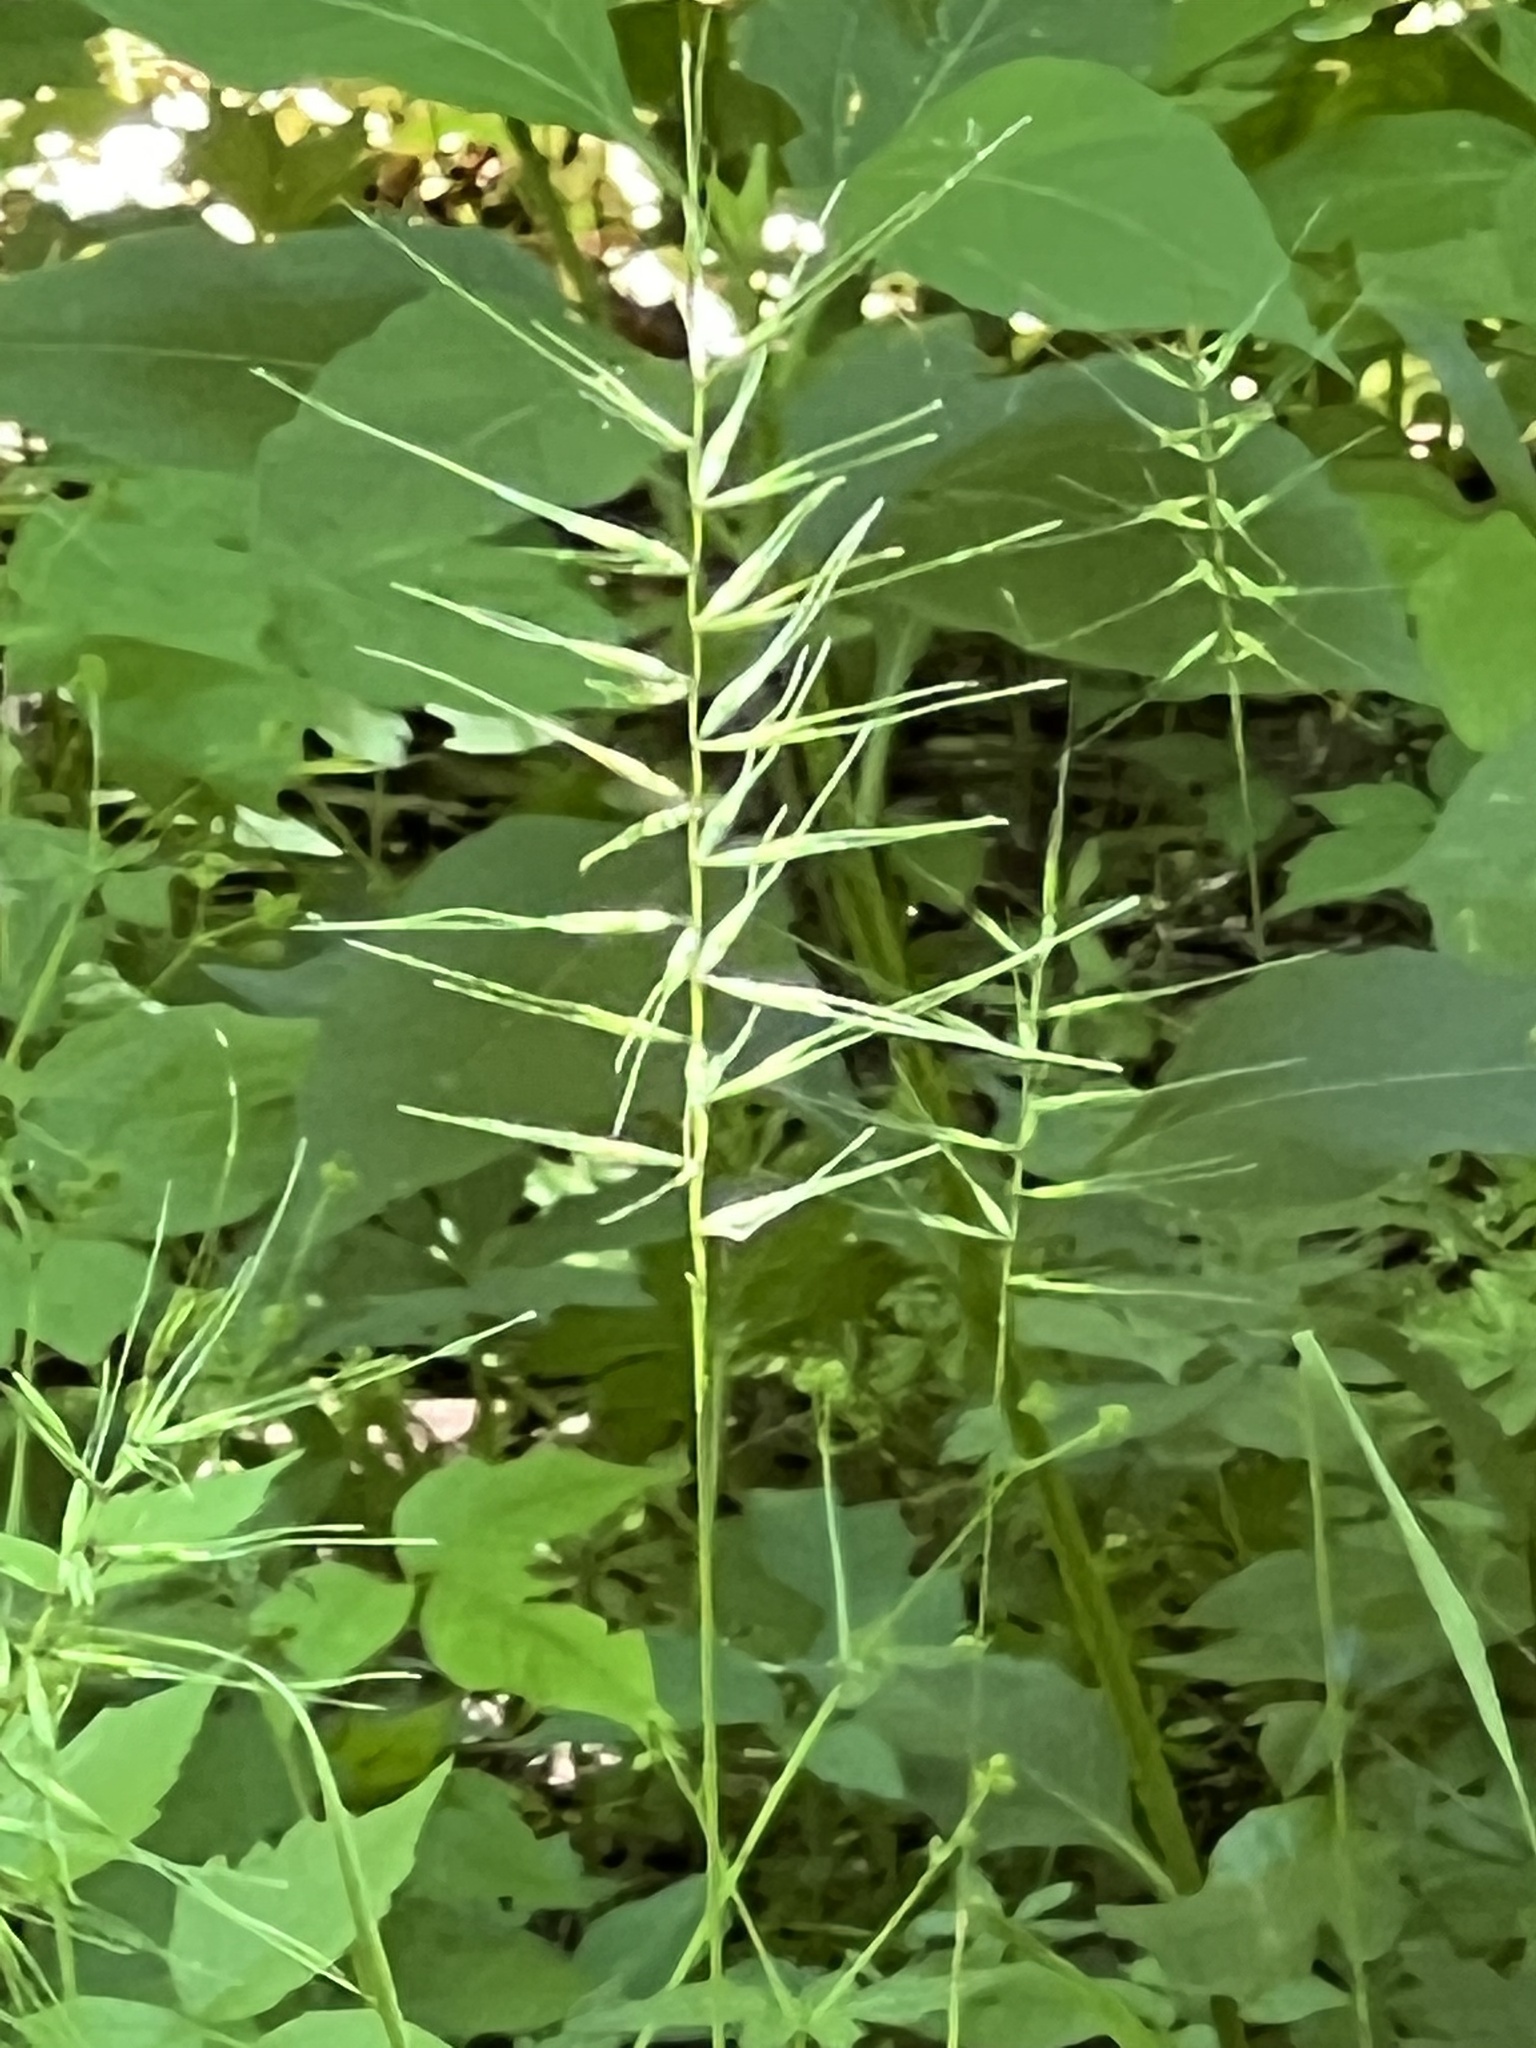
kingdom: Plantae
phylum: Tracheophyta
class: Liliopsida
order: Poales
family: Poaceae
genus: Elymus
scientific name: Elymus hystrix
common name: Bottlebrush grass
